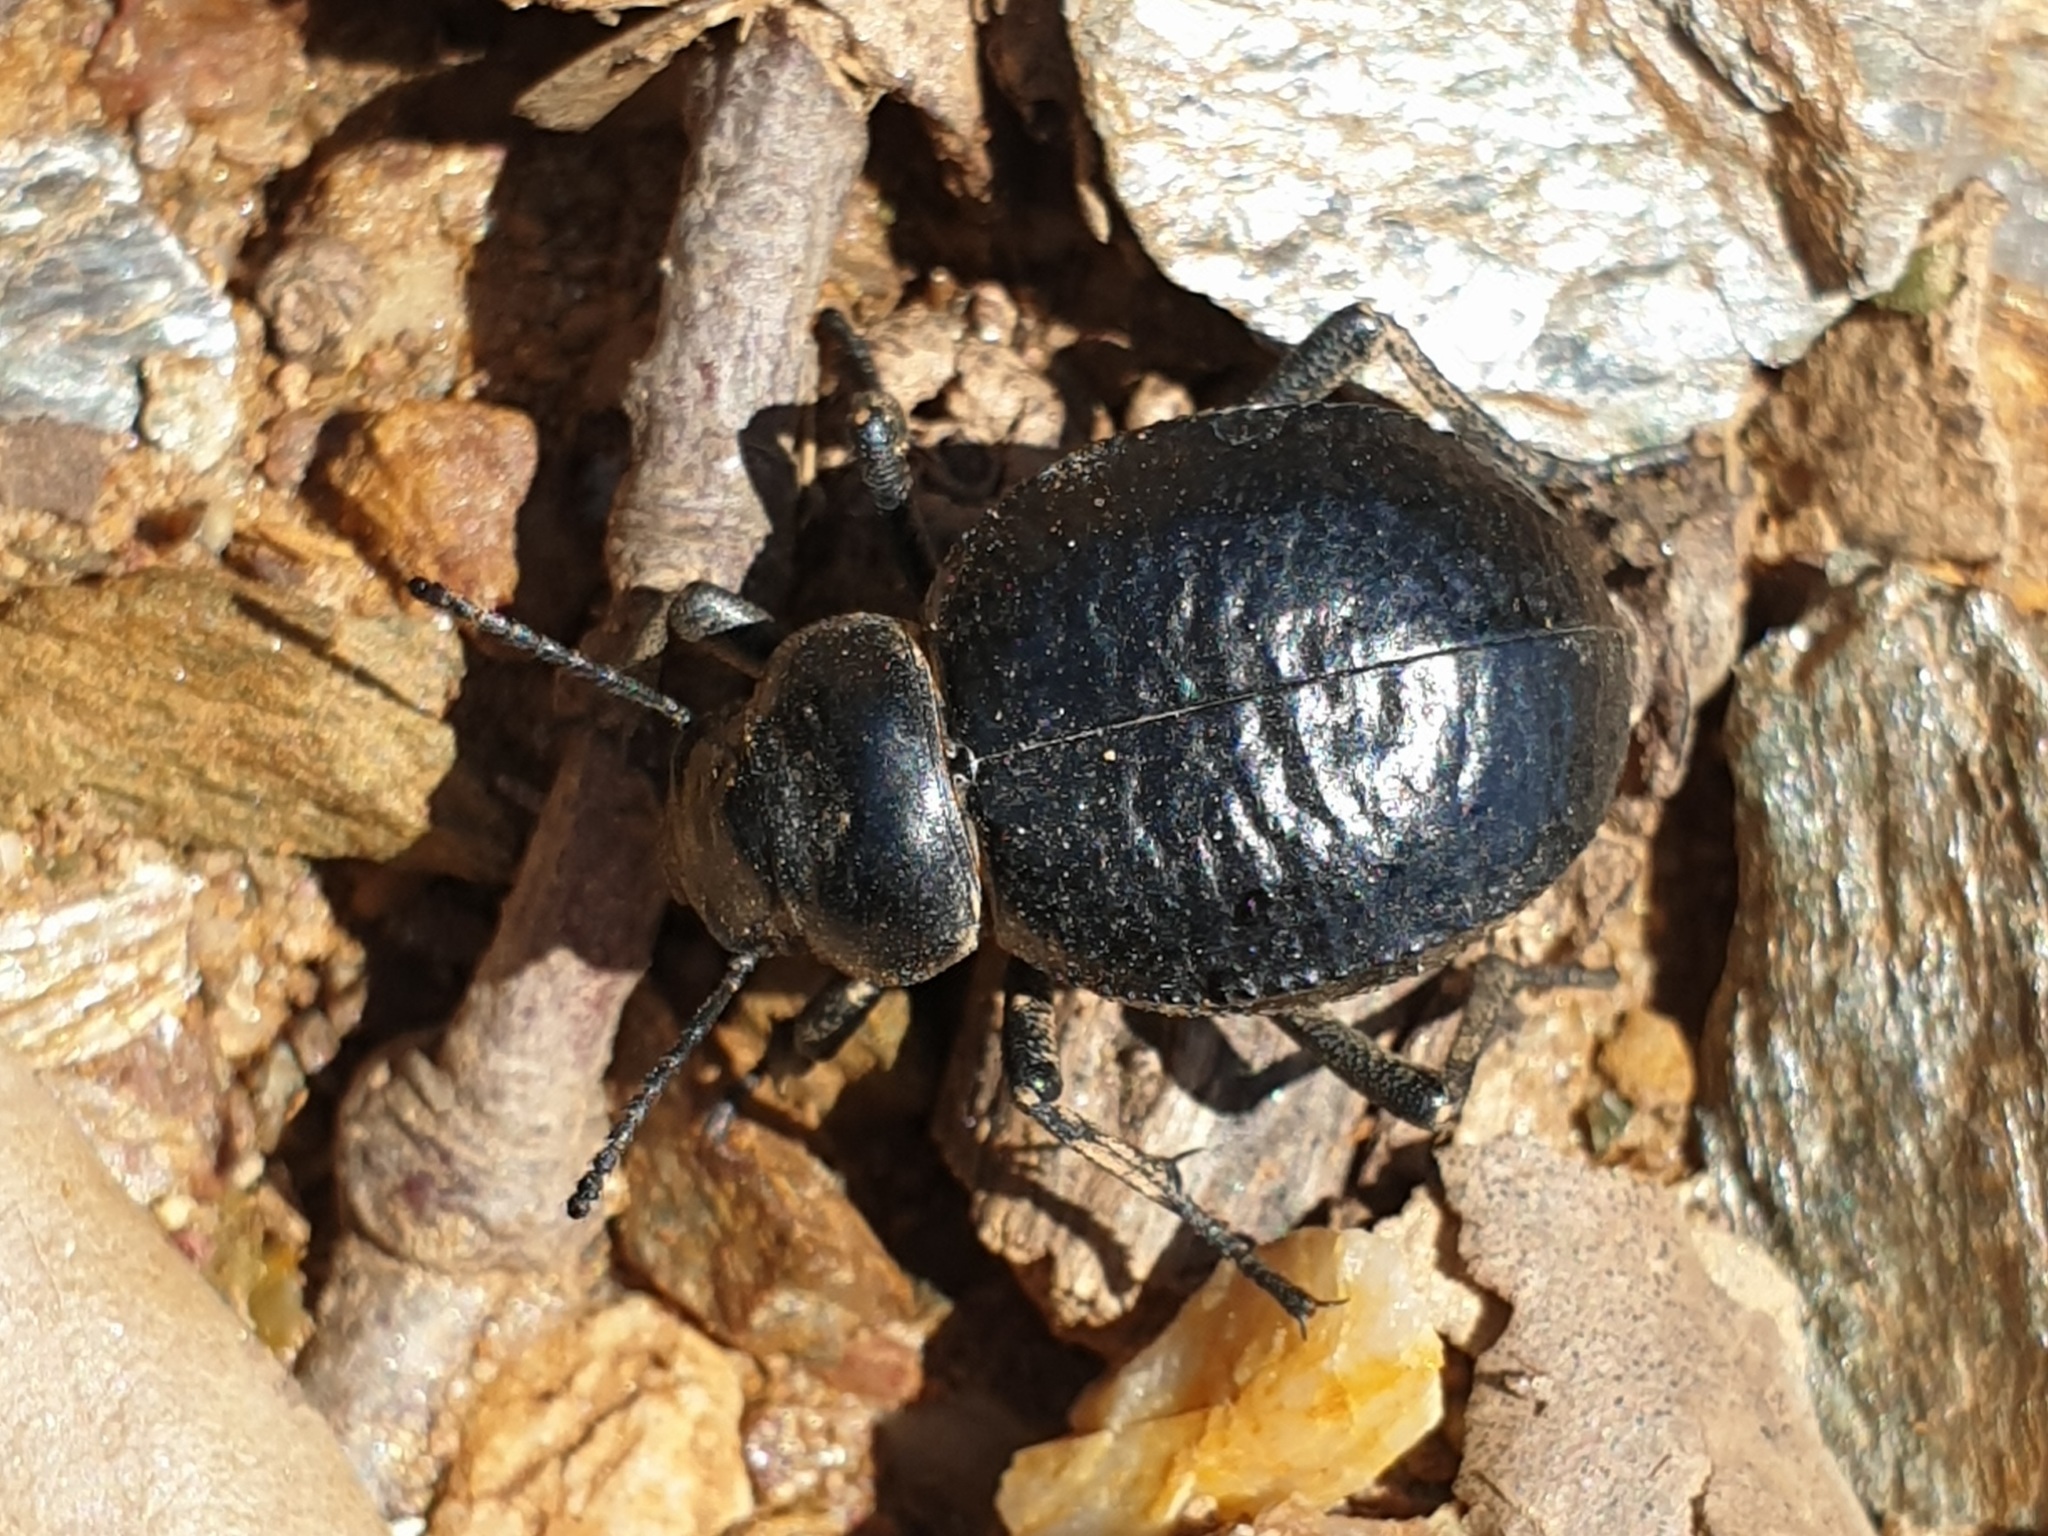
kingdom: Animalia
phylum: Arthropoda
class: Insecta
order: Coleoptera
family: Tenebrionidae
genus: Pimelia
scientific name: Pimelia undulata
